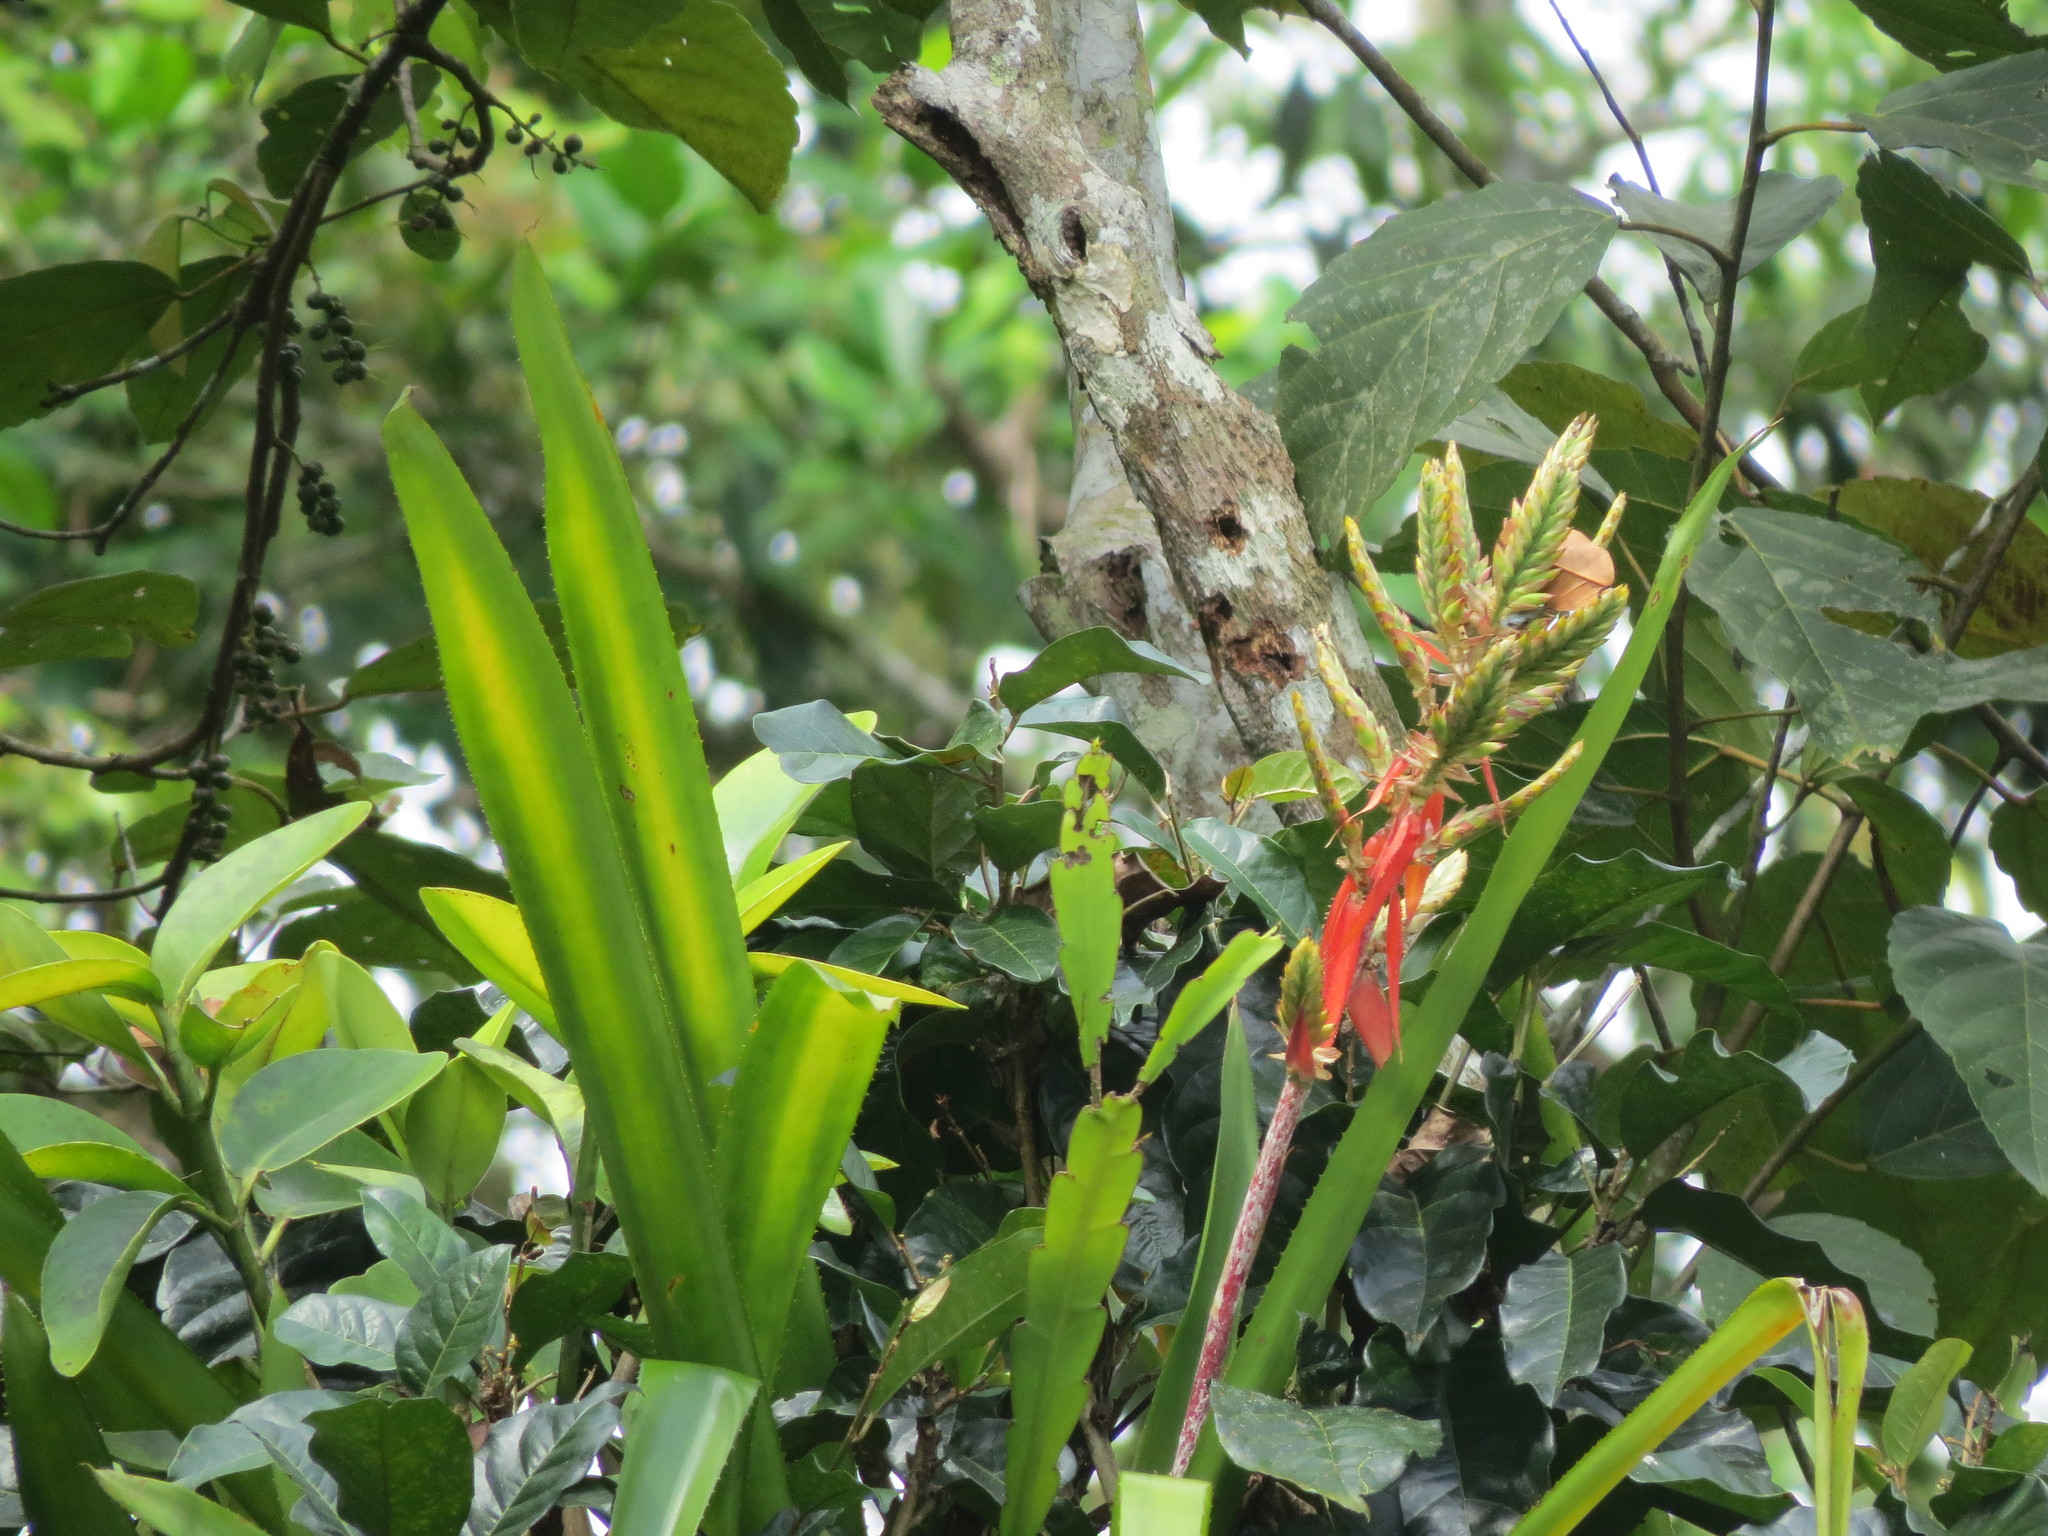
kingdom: Plantae
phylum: Tracheophyta
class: Liliopsida
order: Poales
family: Bromeliaceae
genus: Aechmea
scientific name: Aechmea tillandsioides
